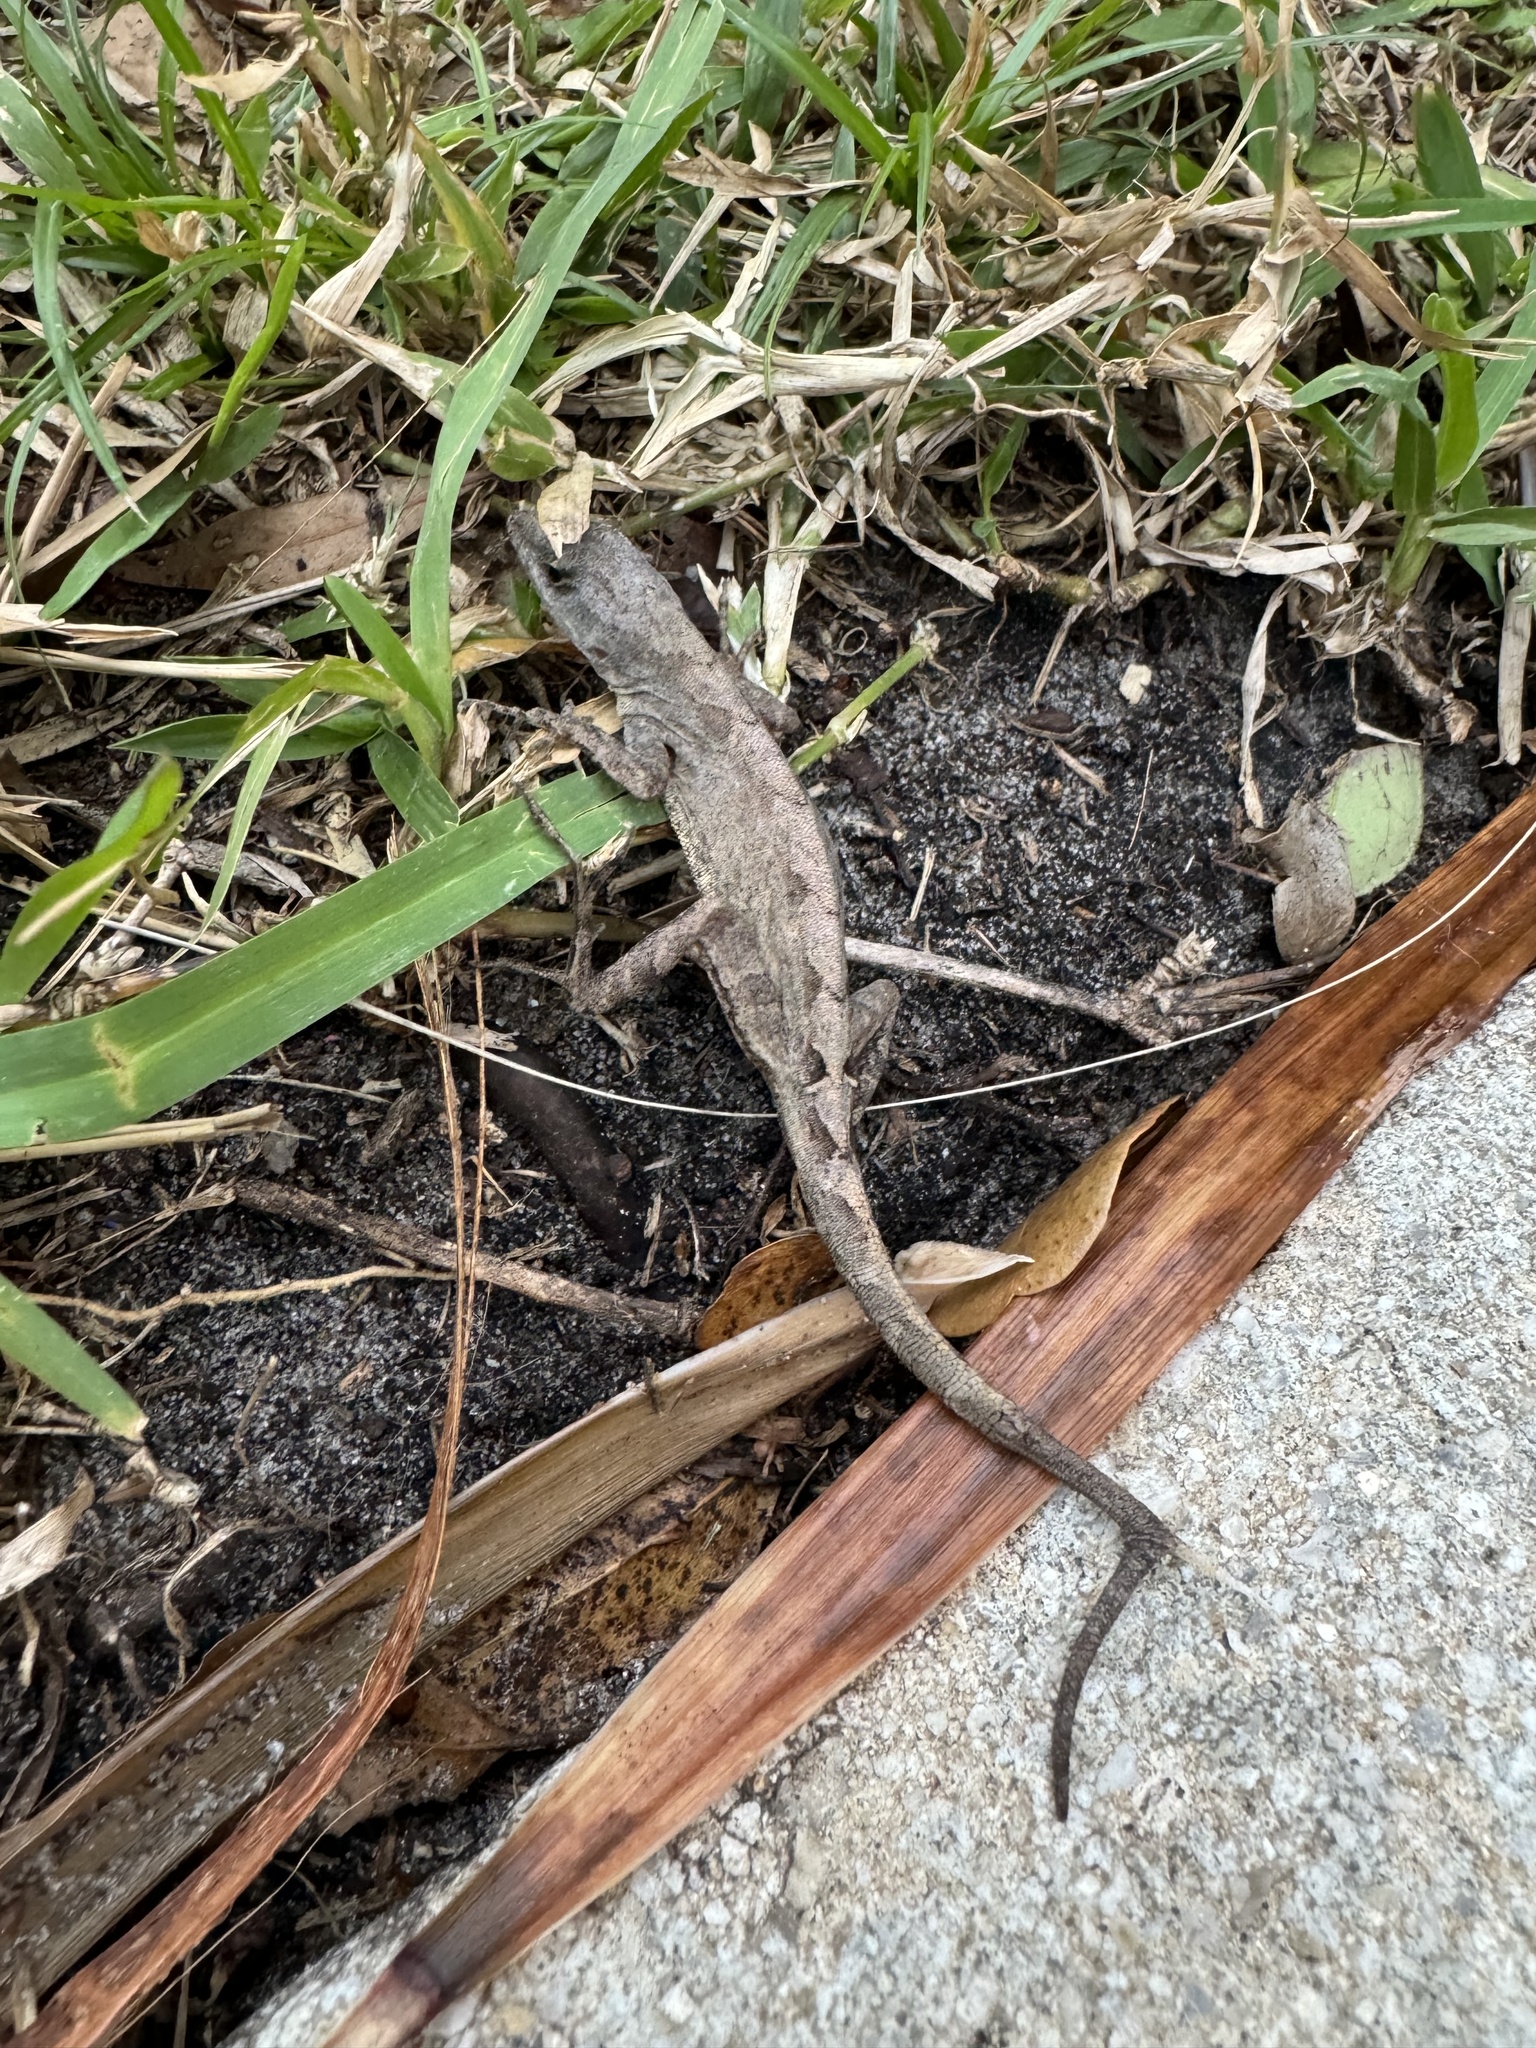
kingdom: Animalia
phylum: Chordata
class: Squamata
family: Dactyloidae
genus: Anolis
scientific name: Anolis sagrei
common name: Brown anole
